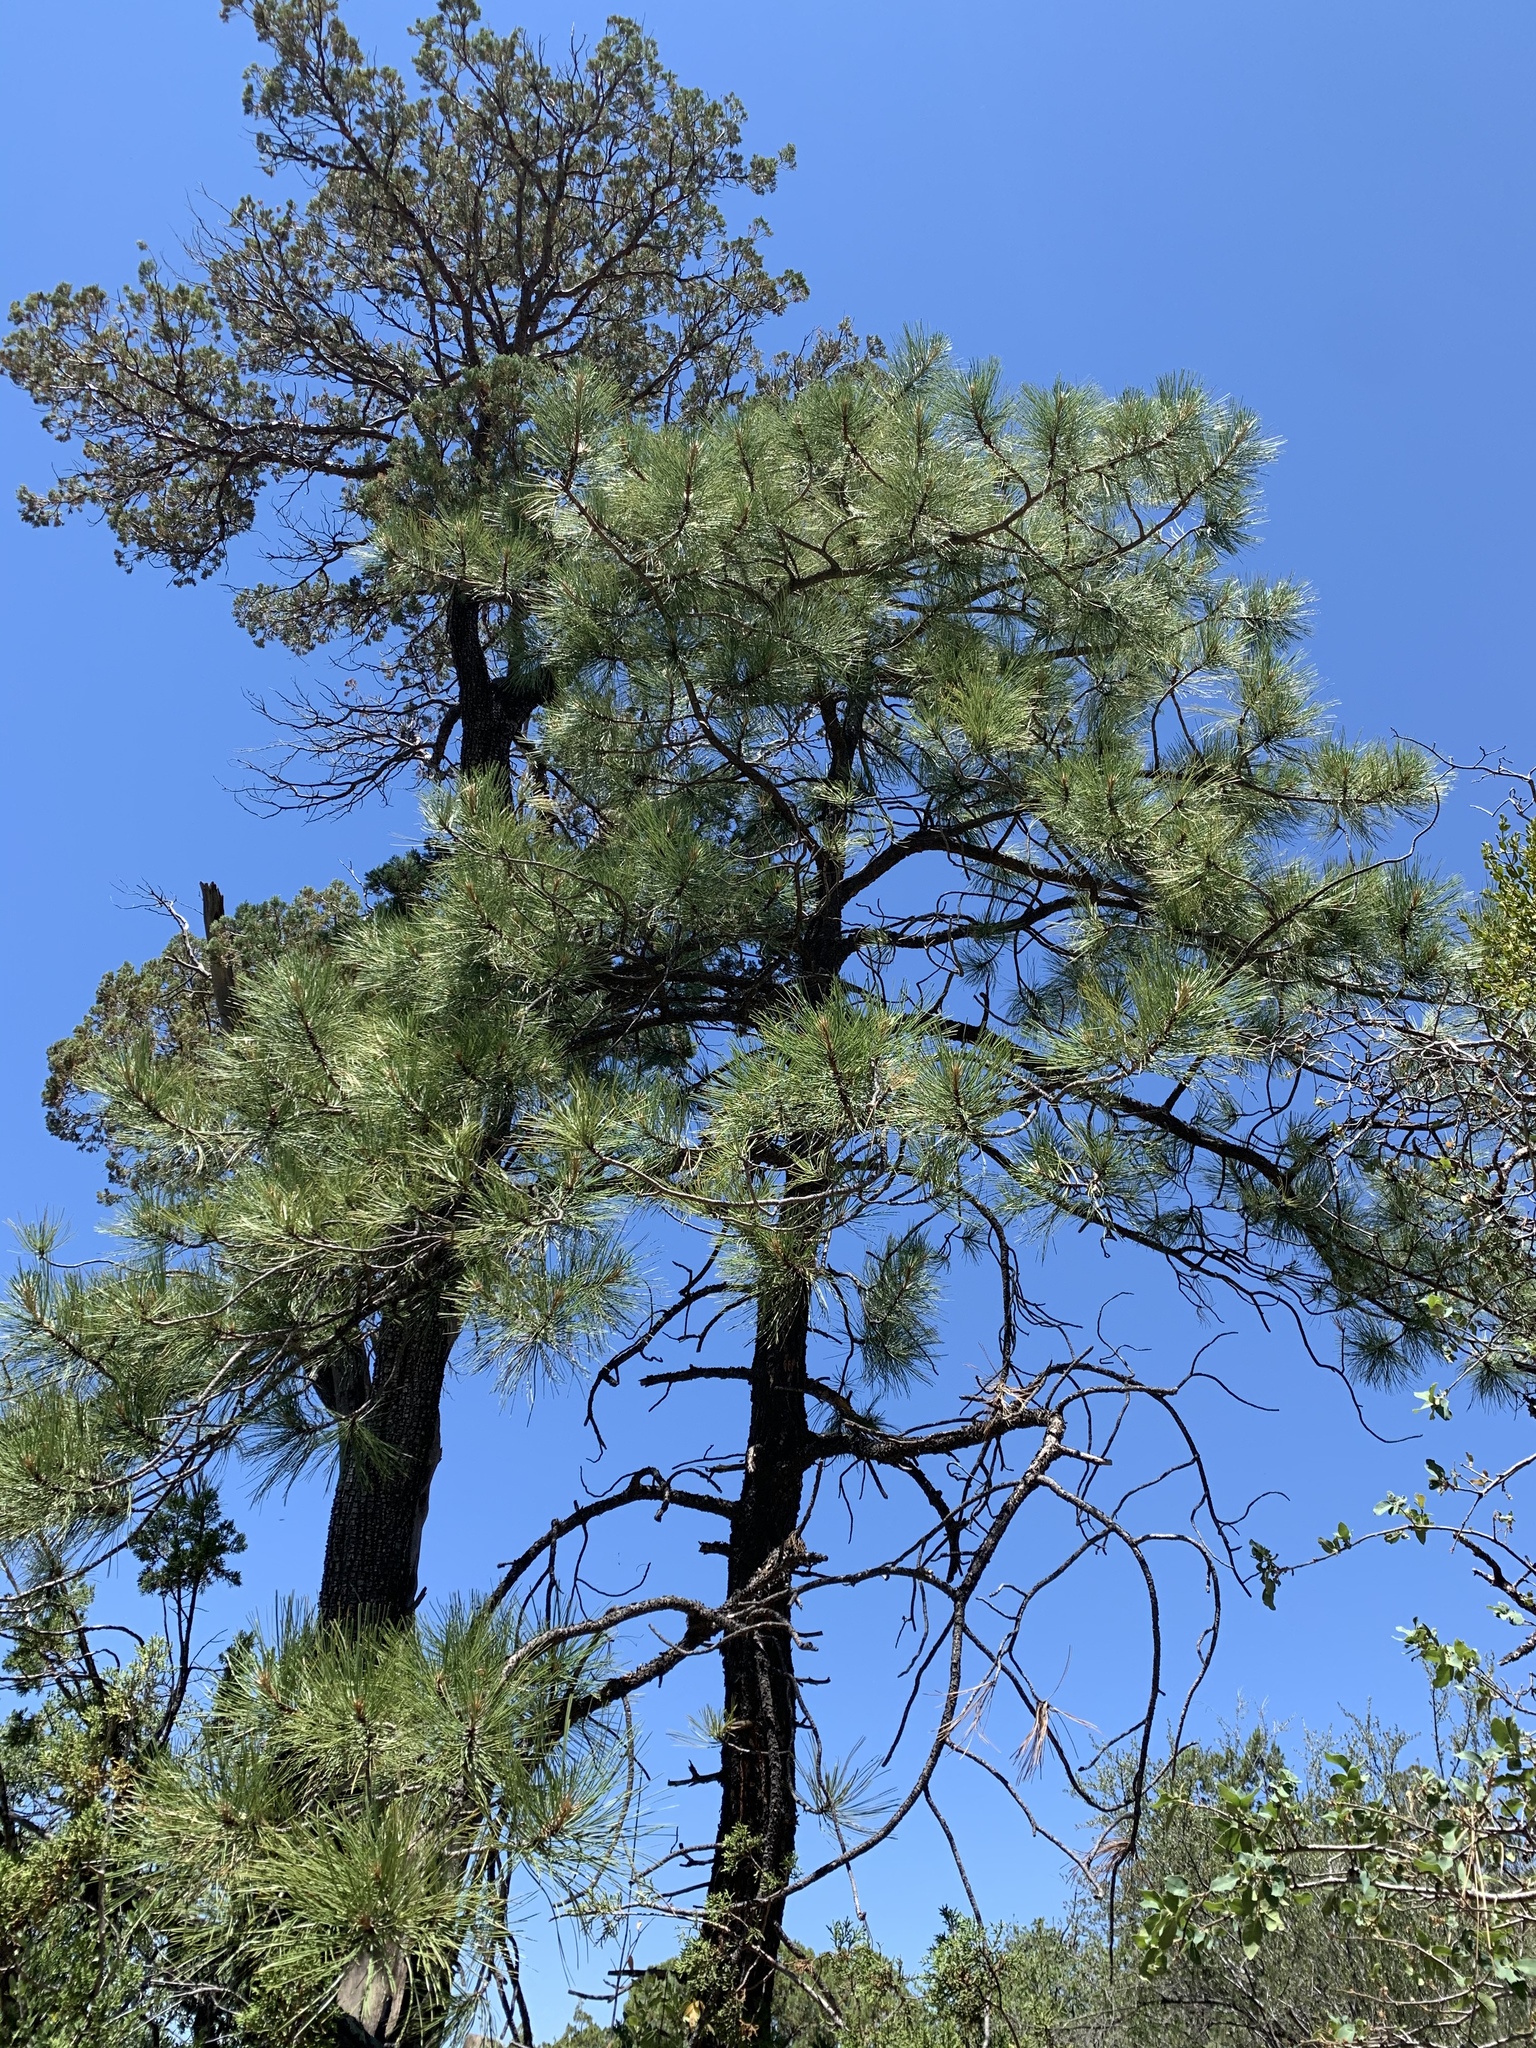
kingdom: Plantae
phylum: Tracheophyta
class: Pinopsida
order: Pinales
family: Pinaceae
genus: Pinus
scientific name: Pinus ponderosa
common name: Western yellow-pine
